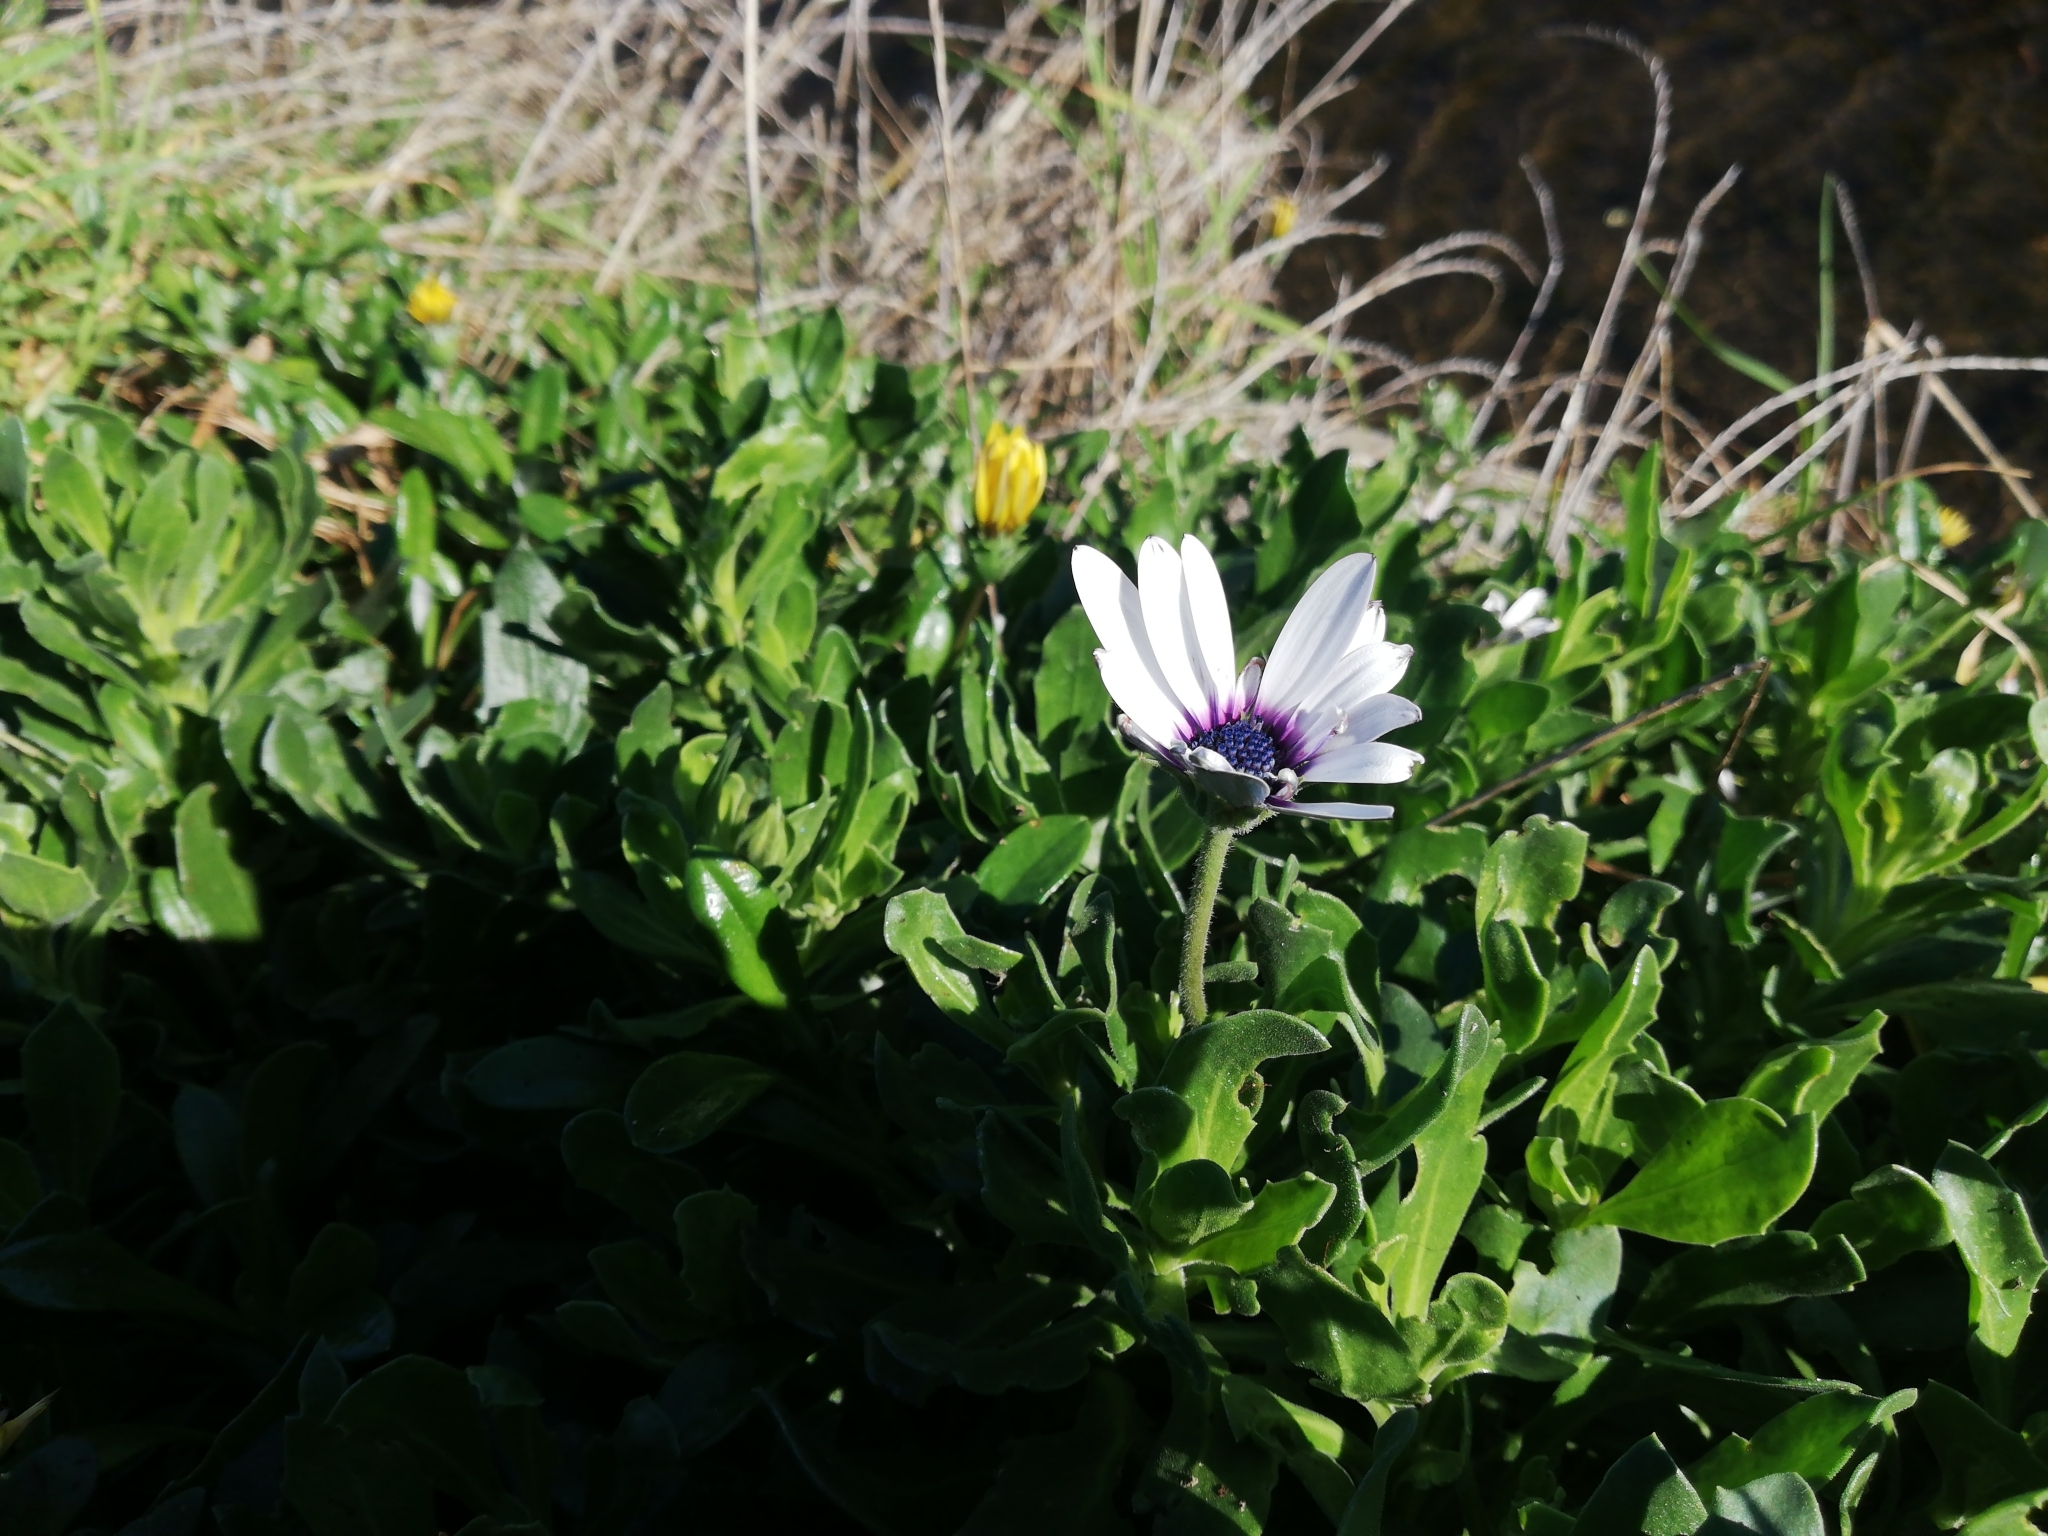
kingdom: Plantae
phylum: Tracheophyta
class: Magnoliopsida
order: Asterales
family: Asteraceae
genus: Dimorphotheca
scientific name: Dimorphotheca fruticosa
